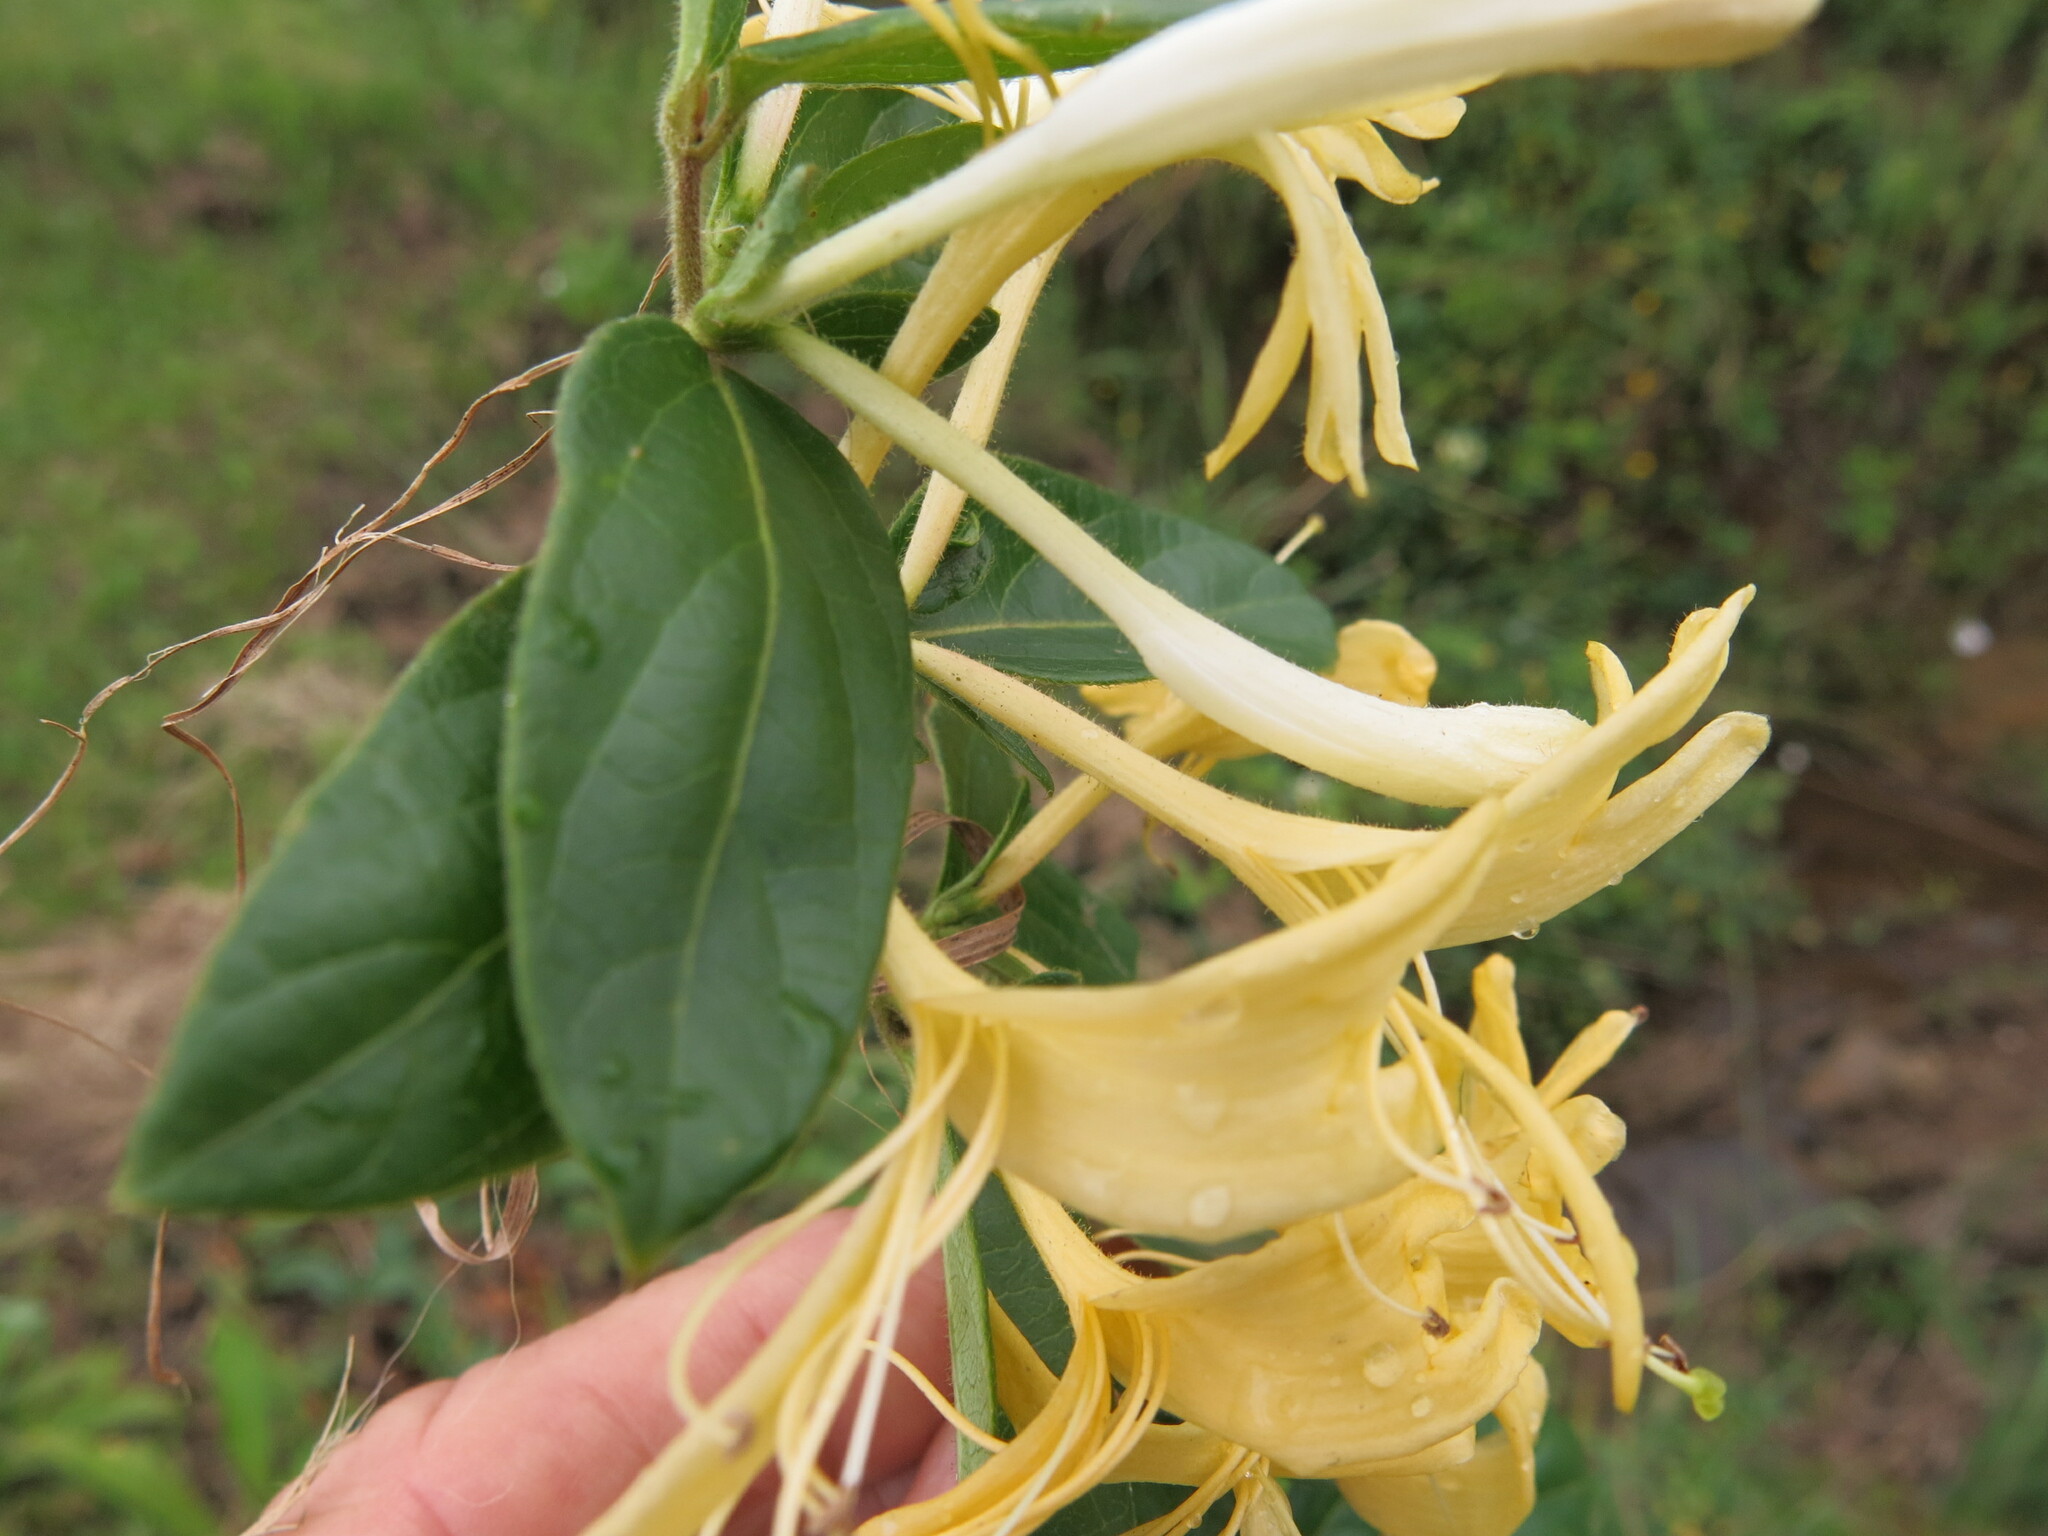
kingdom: Plantae
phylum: Tracheophyta
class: Magnoliopsida
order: Dipsacales
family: Caprifoliaceae
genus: Lonicera
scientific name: Lonicera japonica
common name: Japanese honeysuckle
